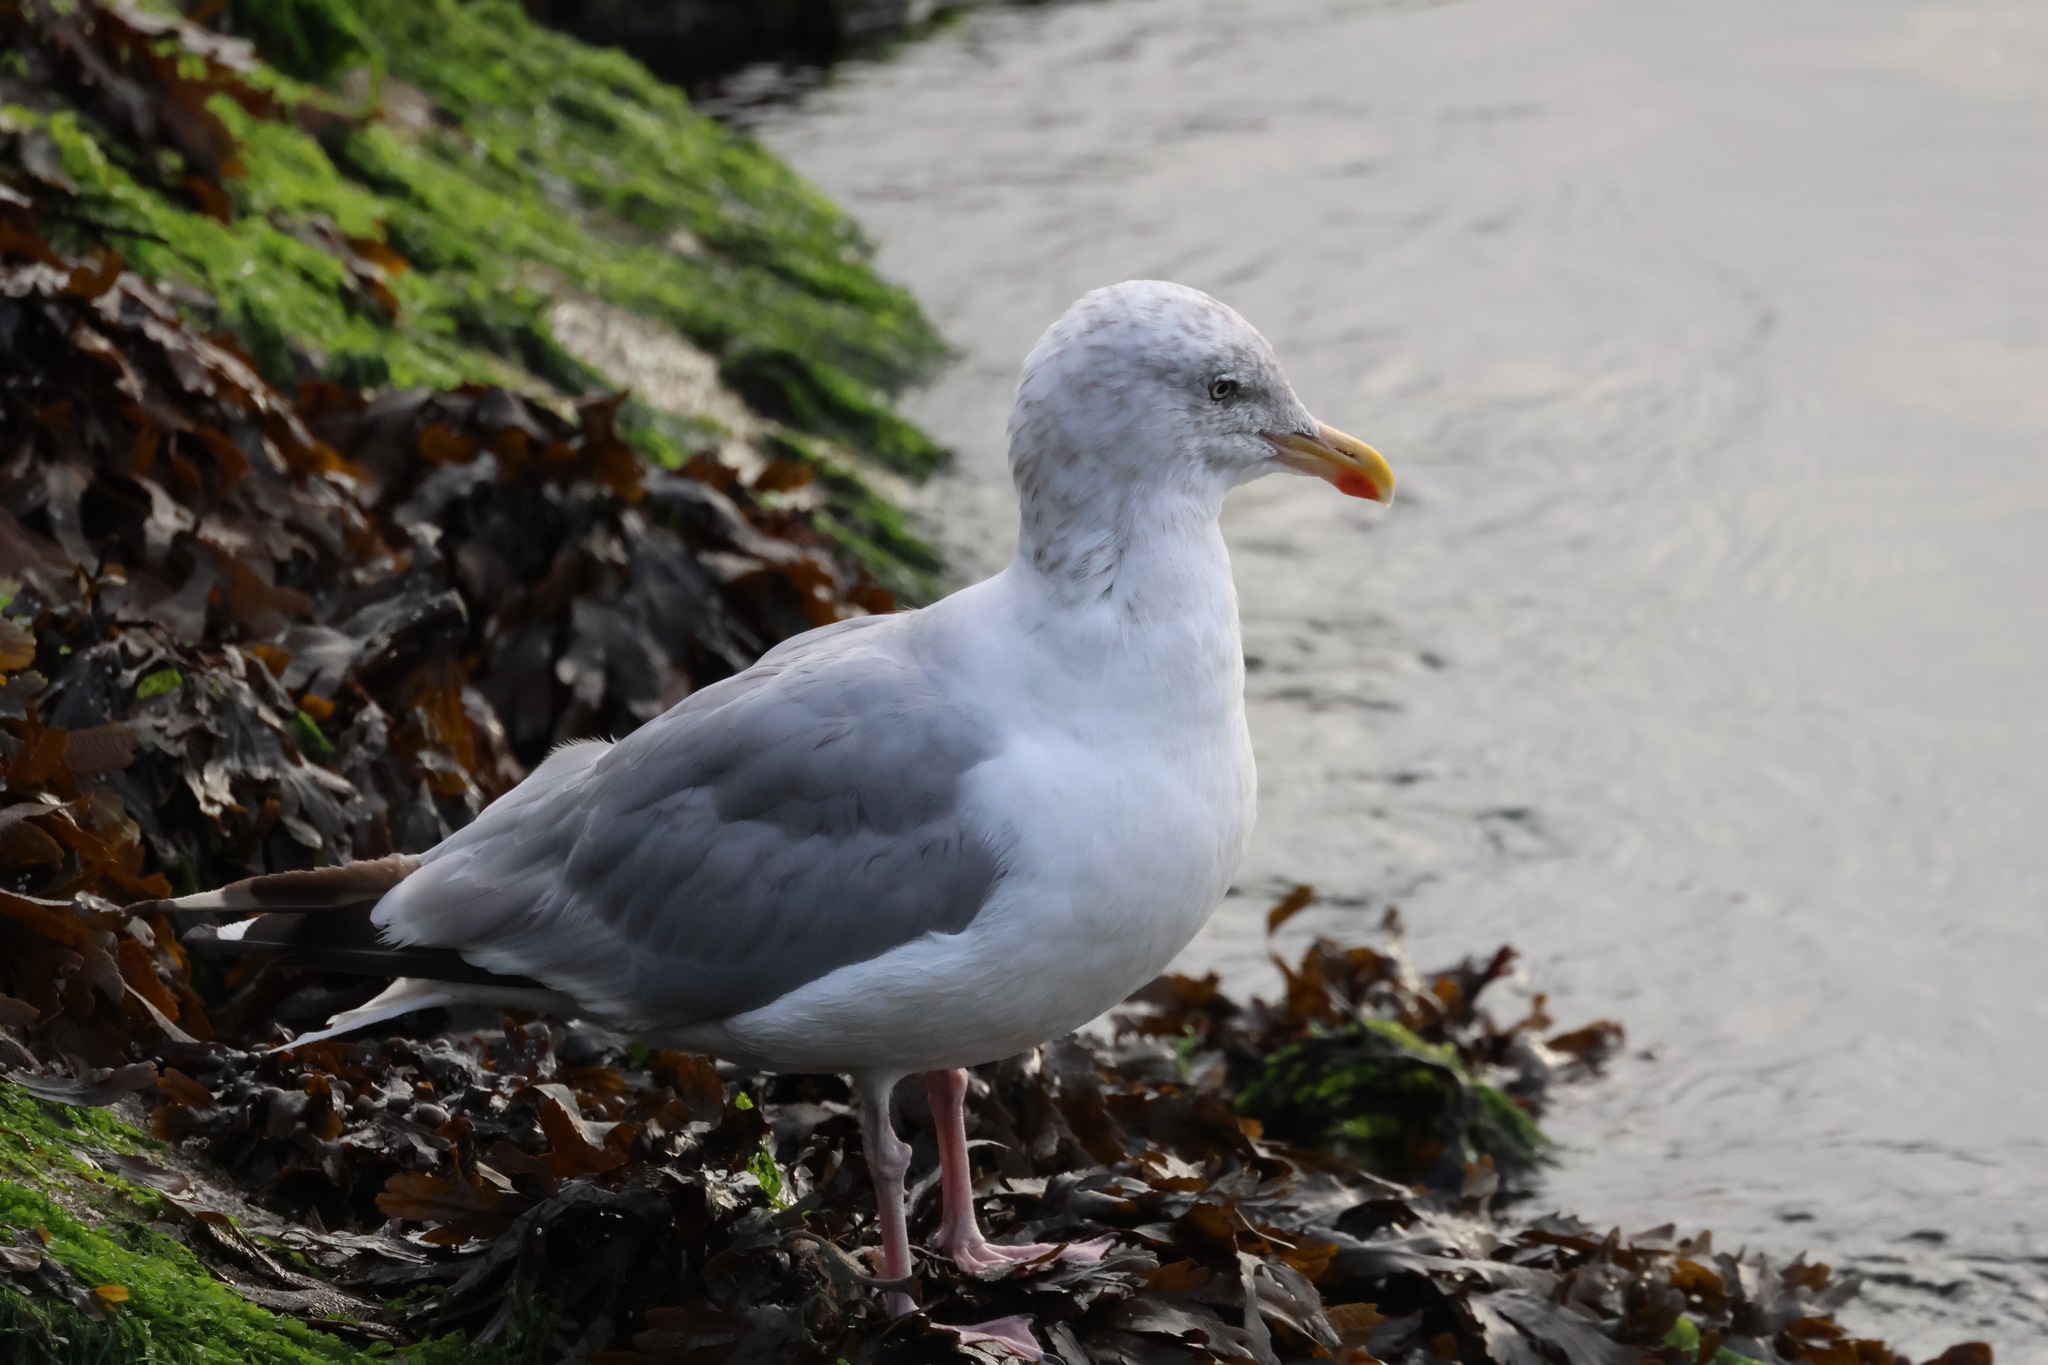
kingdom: Animalia
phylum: Chordata
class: Aves
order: Charadriiformes
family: Laridae
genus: Larus
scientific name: Larus argentatus
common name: Herring gull
